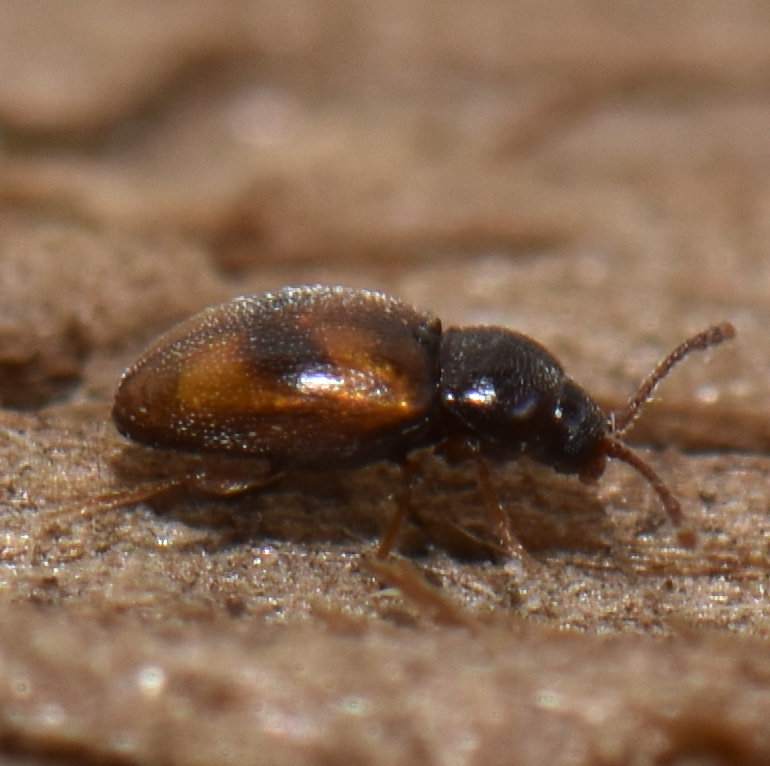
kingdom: Animalia
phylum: Arthropoda
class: Insecta
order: Coleoptera
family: Cryptophagidae
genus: Atomaria
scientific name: Atomaria ephippiata
